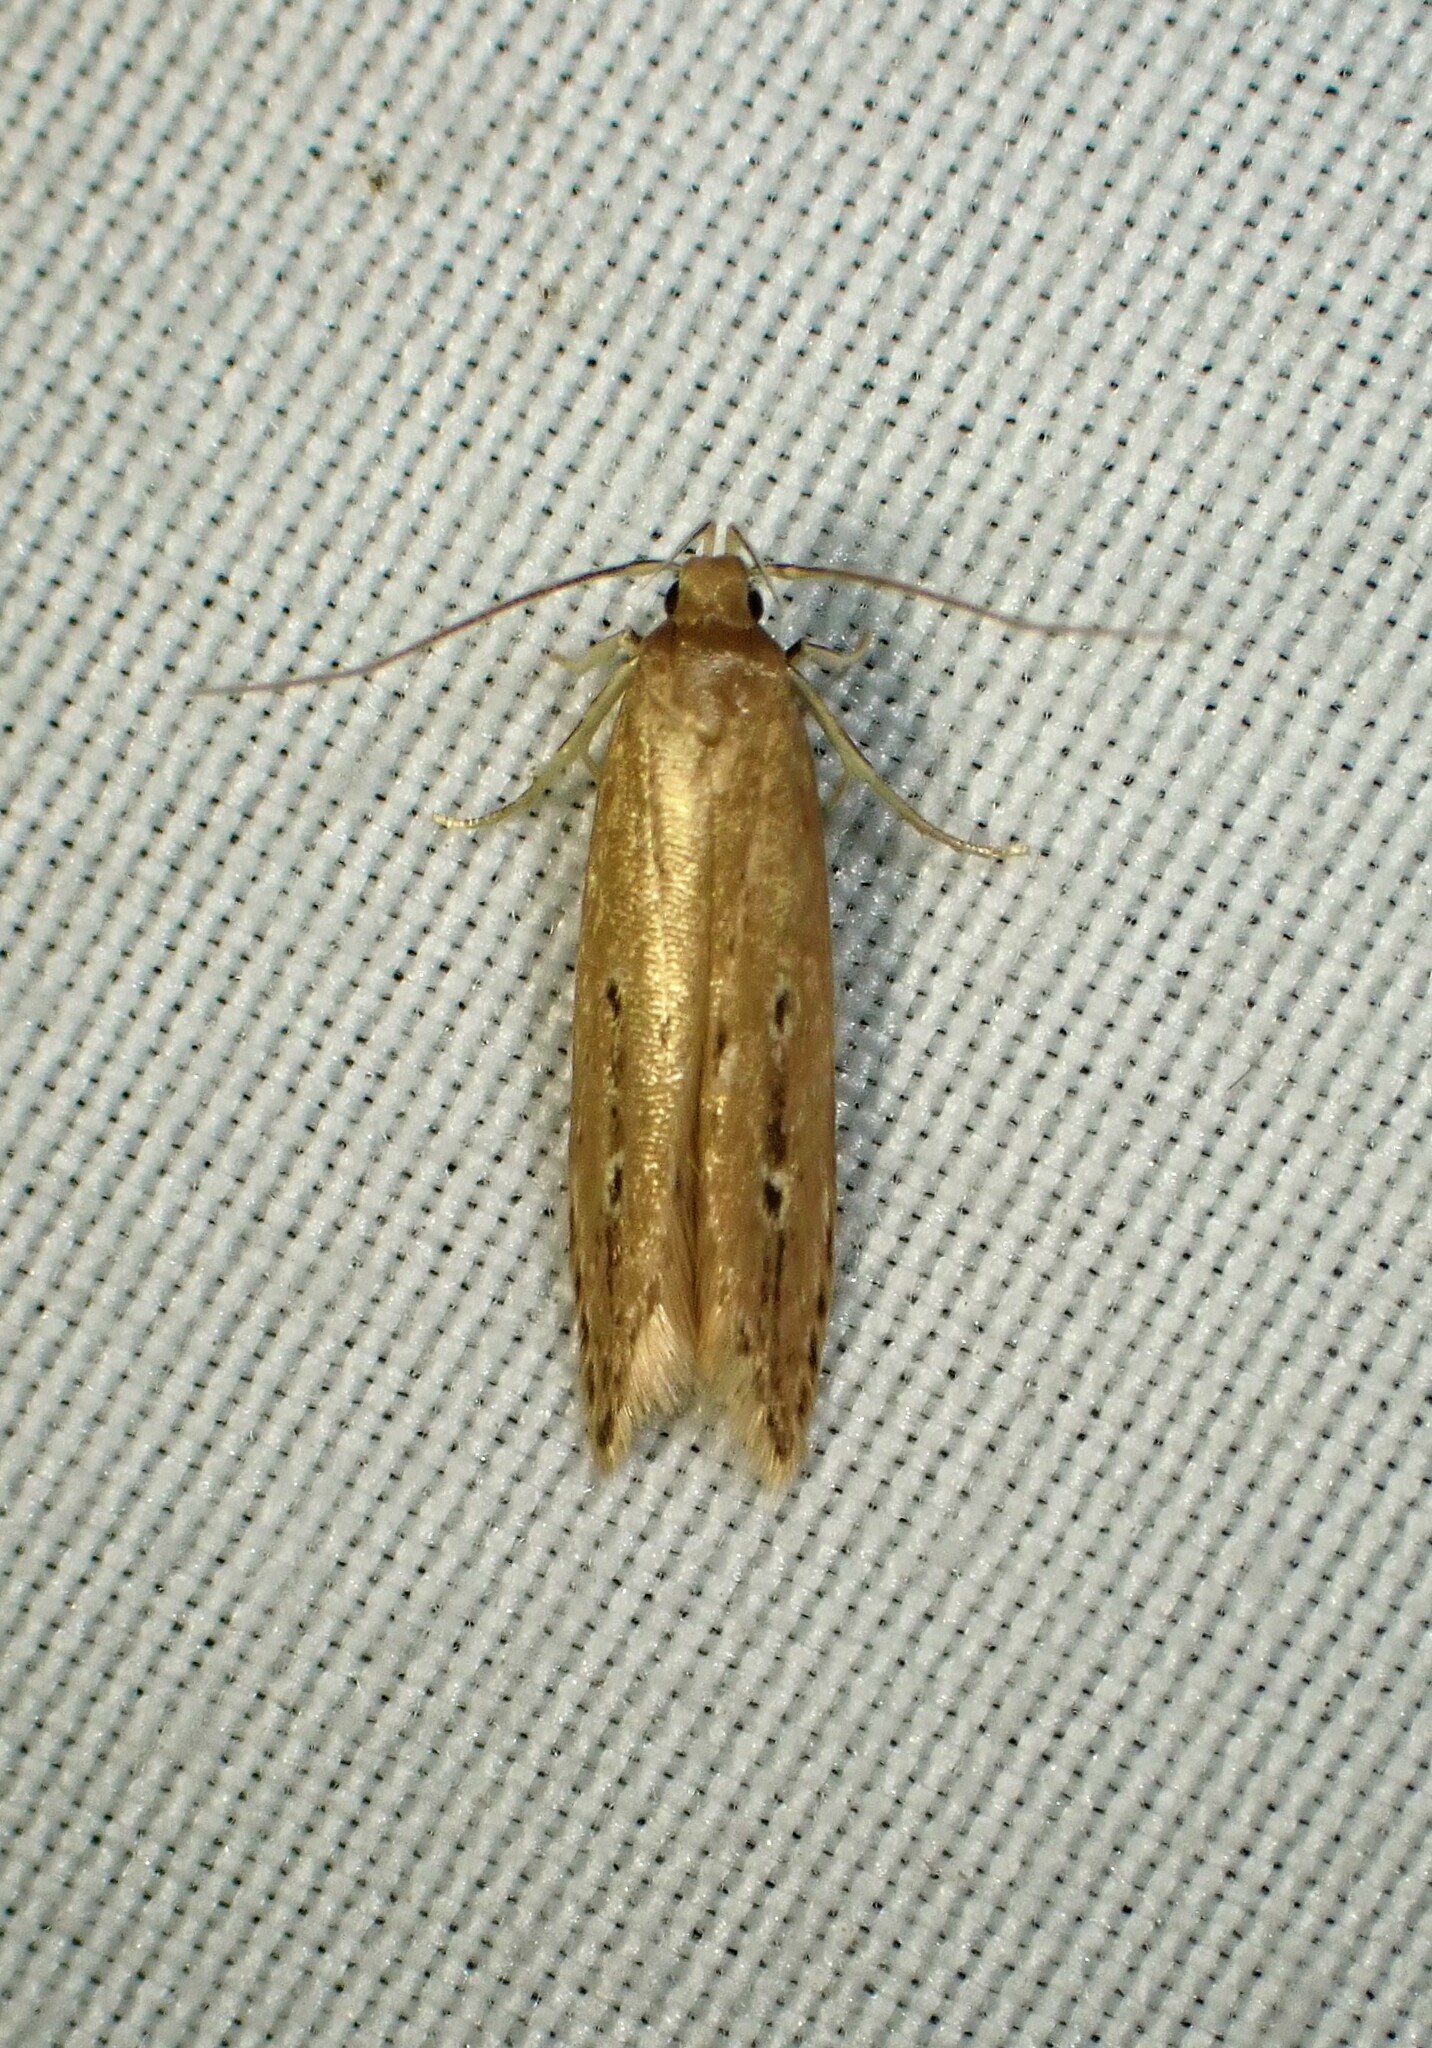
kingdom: Animalia
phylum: Arthropoda
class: Insecta
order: Lepidoptera
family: Cosmopterigidae
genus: Limnaecia
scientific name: Limnaecia phragmitella
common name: Bulrush cosmet
